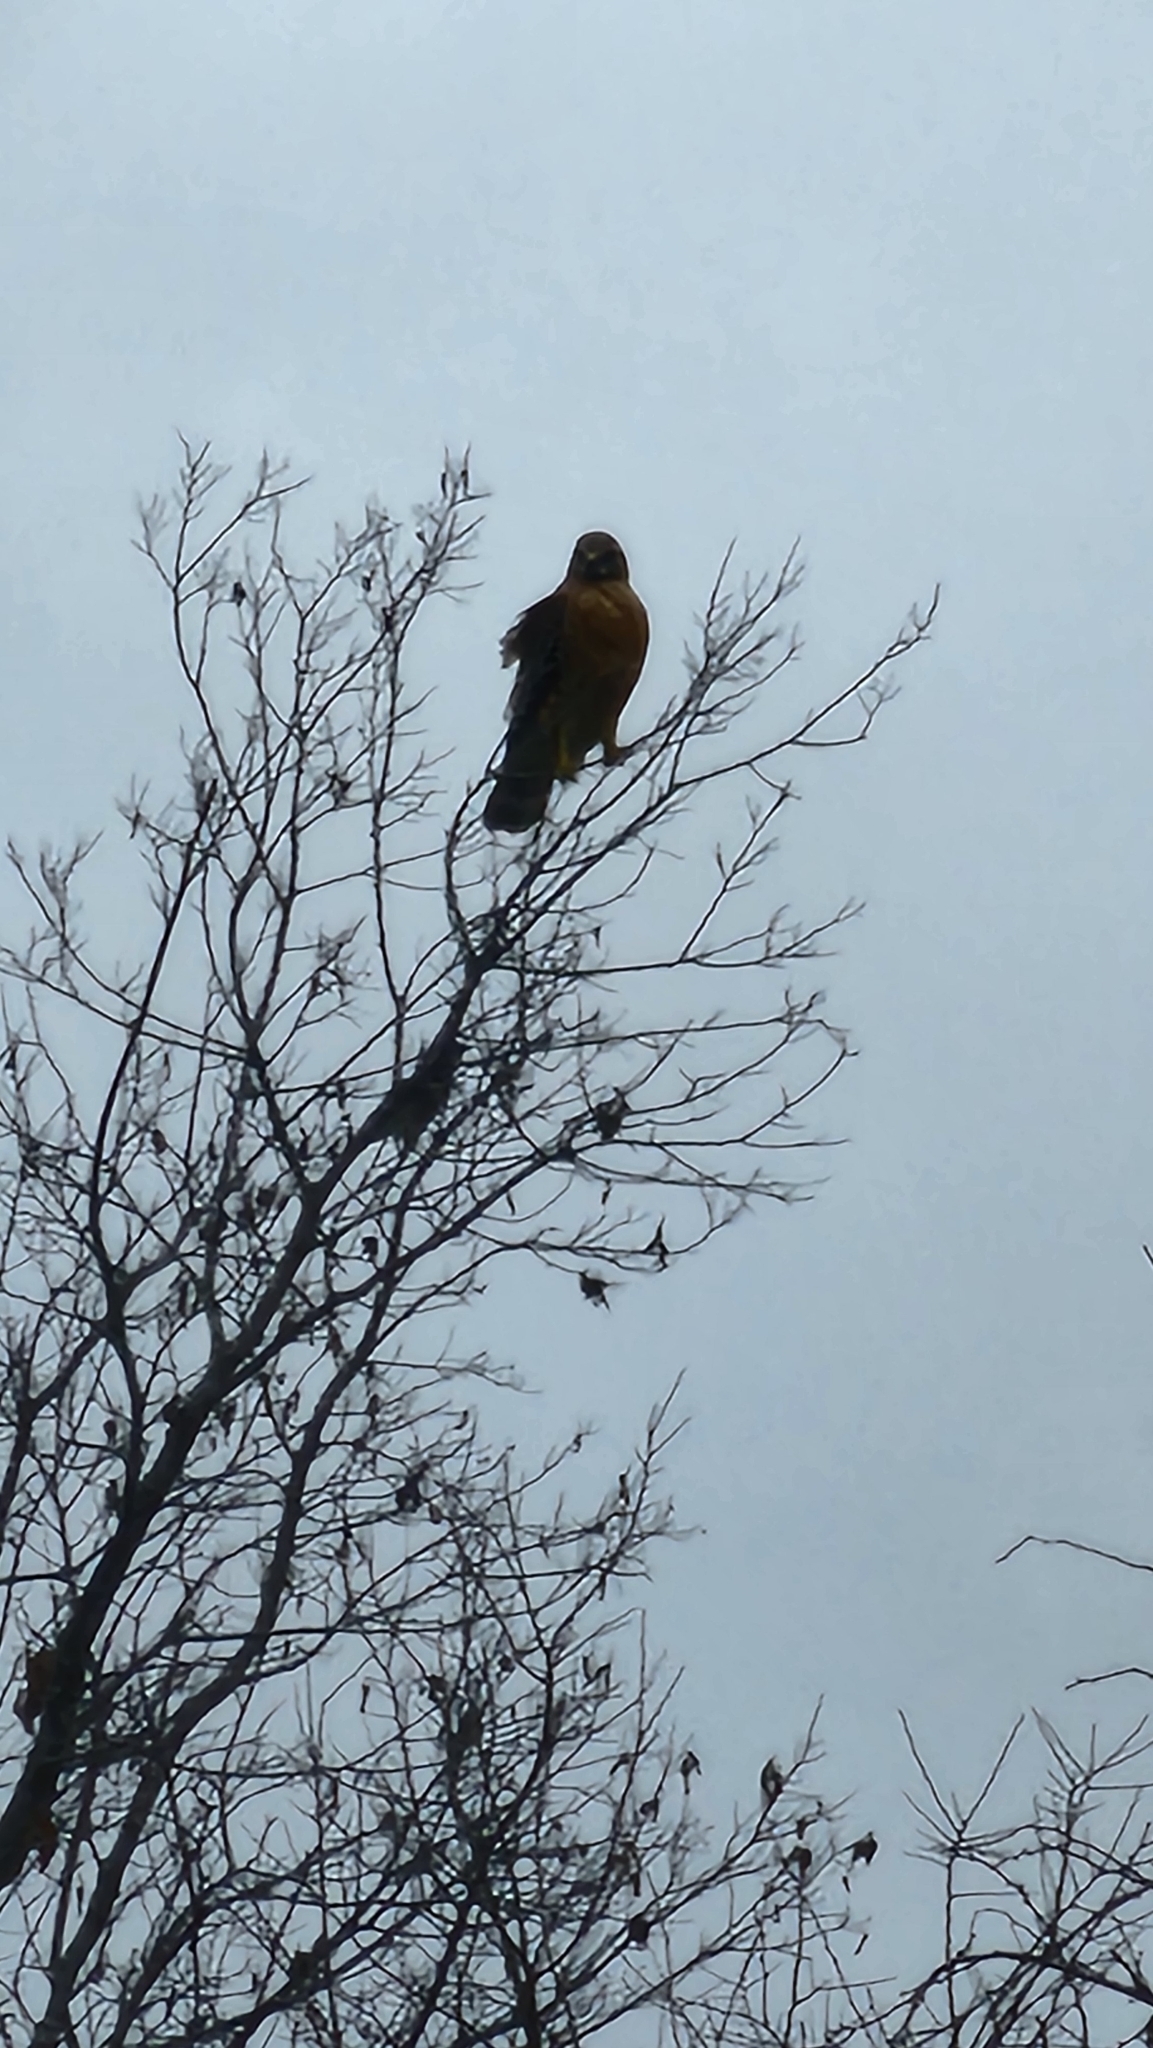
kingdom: Animalia
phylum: Chordata
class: Aves
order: Accipitriformes
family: Accipitridae
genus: Buteo
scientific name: Buteo lineatus
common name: Red-shouldered hawk
